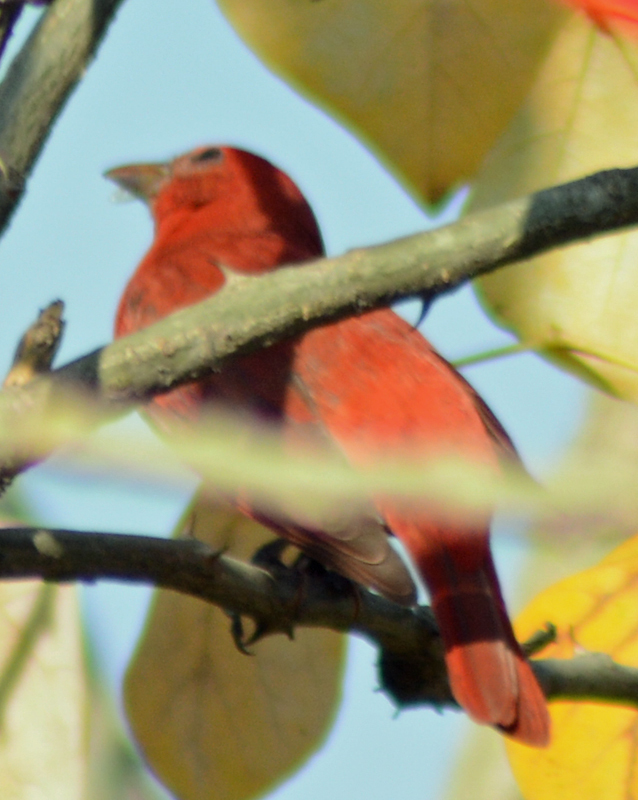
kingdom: Animalia
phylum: Chordata
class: Aves
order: Passeriformes
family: Cardinalidae
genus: Piranga
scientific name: Piranga rubra
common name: Summer tanager
